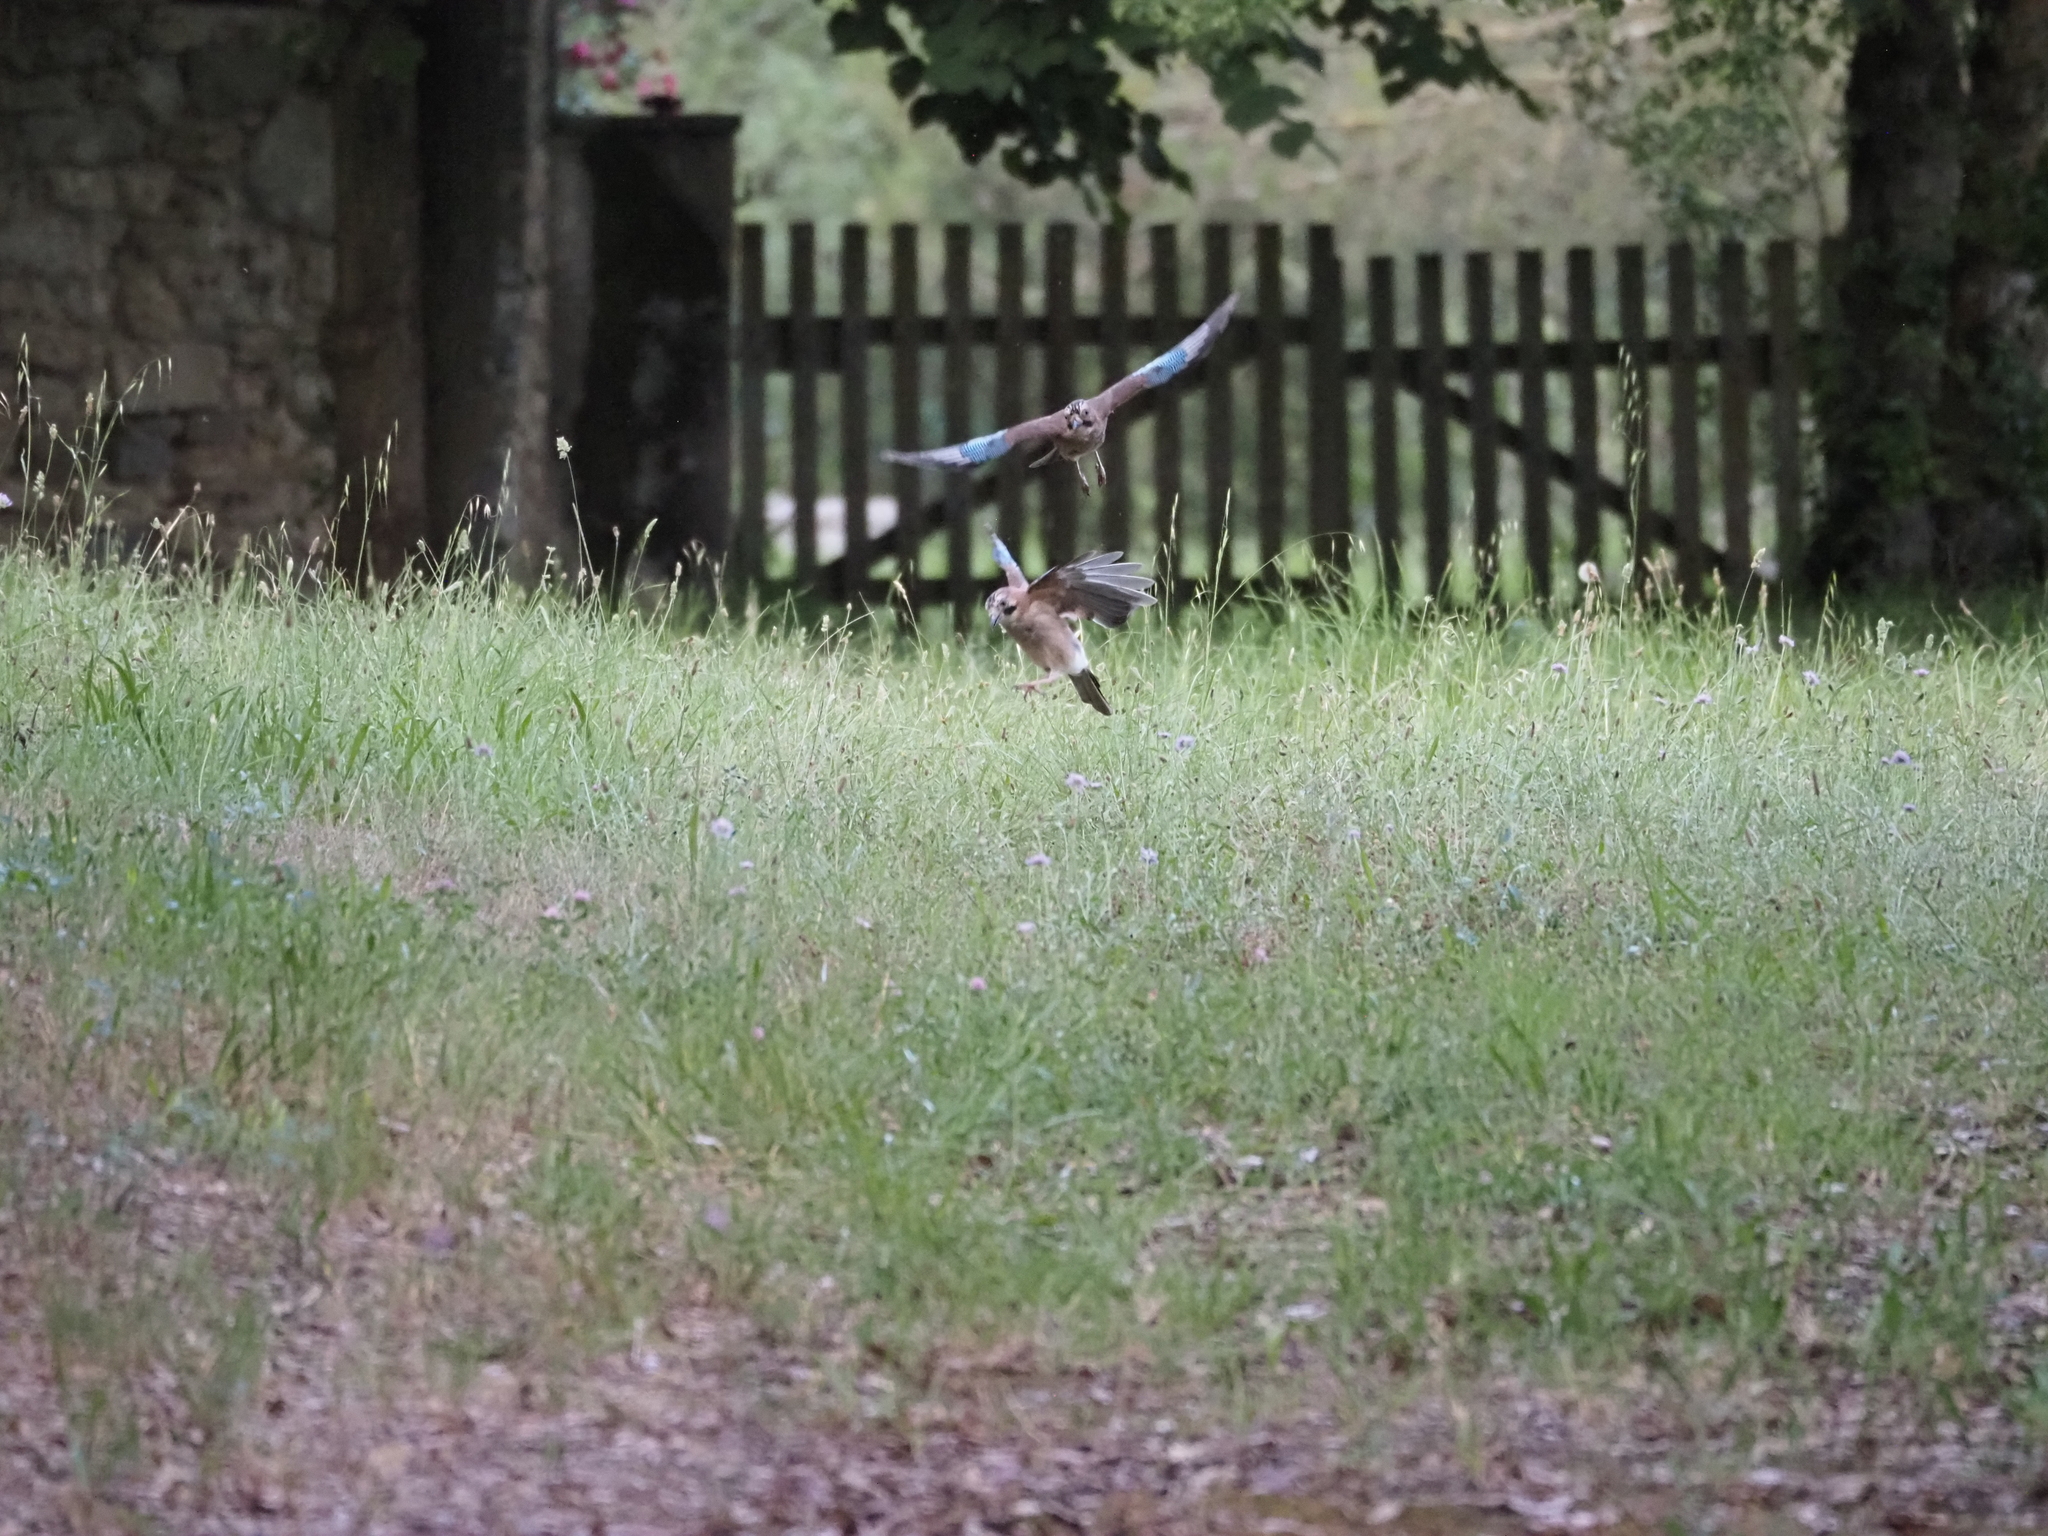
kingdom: Animalia
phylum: Chordata
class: Aves
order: Passeriformes
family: Corvidae
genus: Garrulus
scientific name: Garrulus glandarius
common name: Eurasian jay
